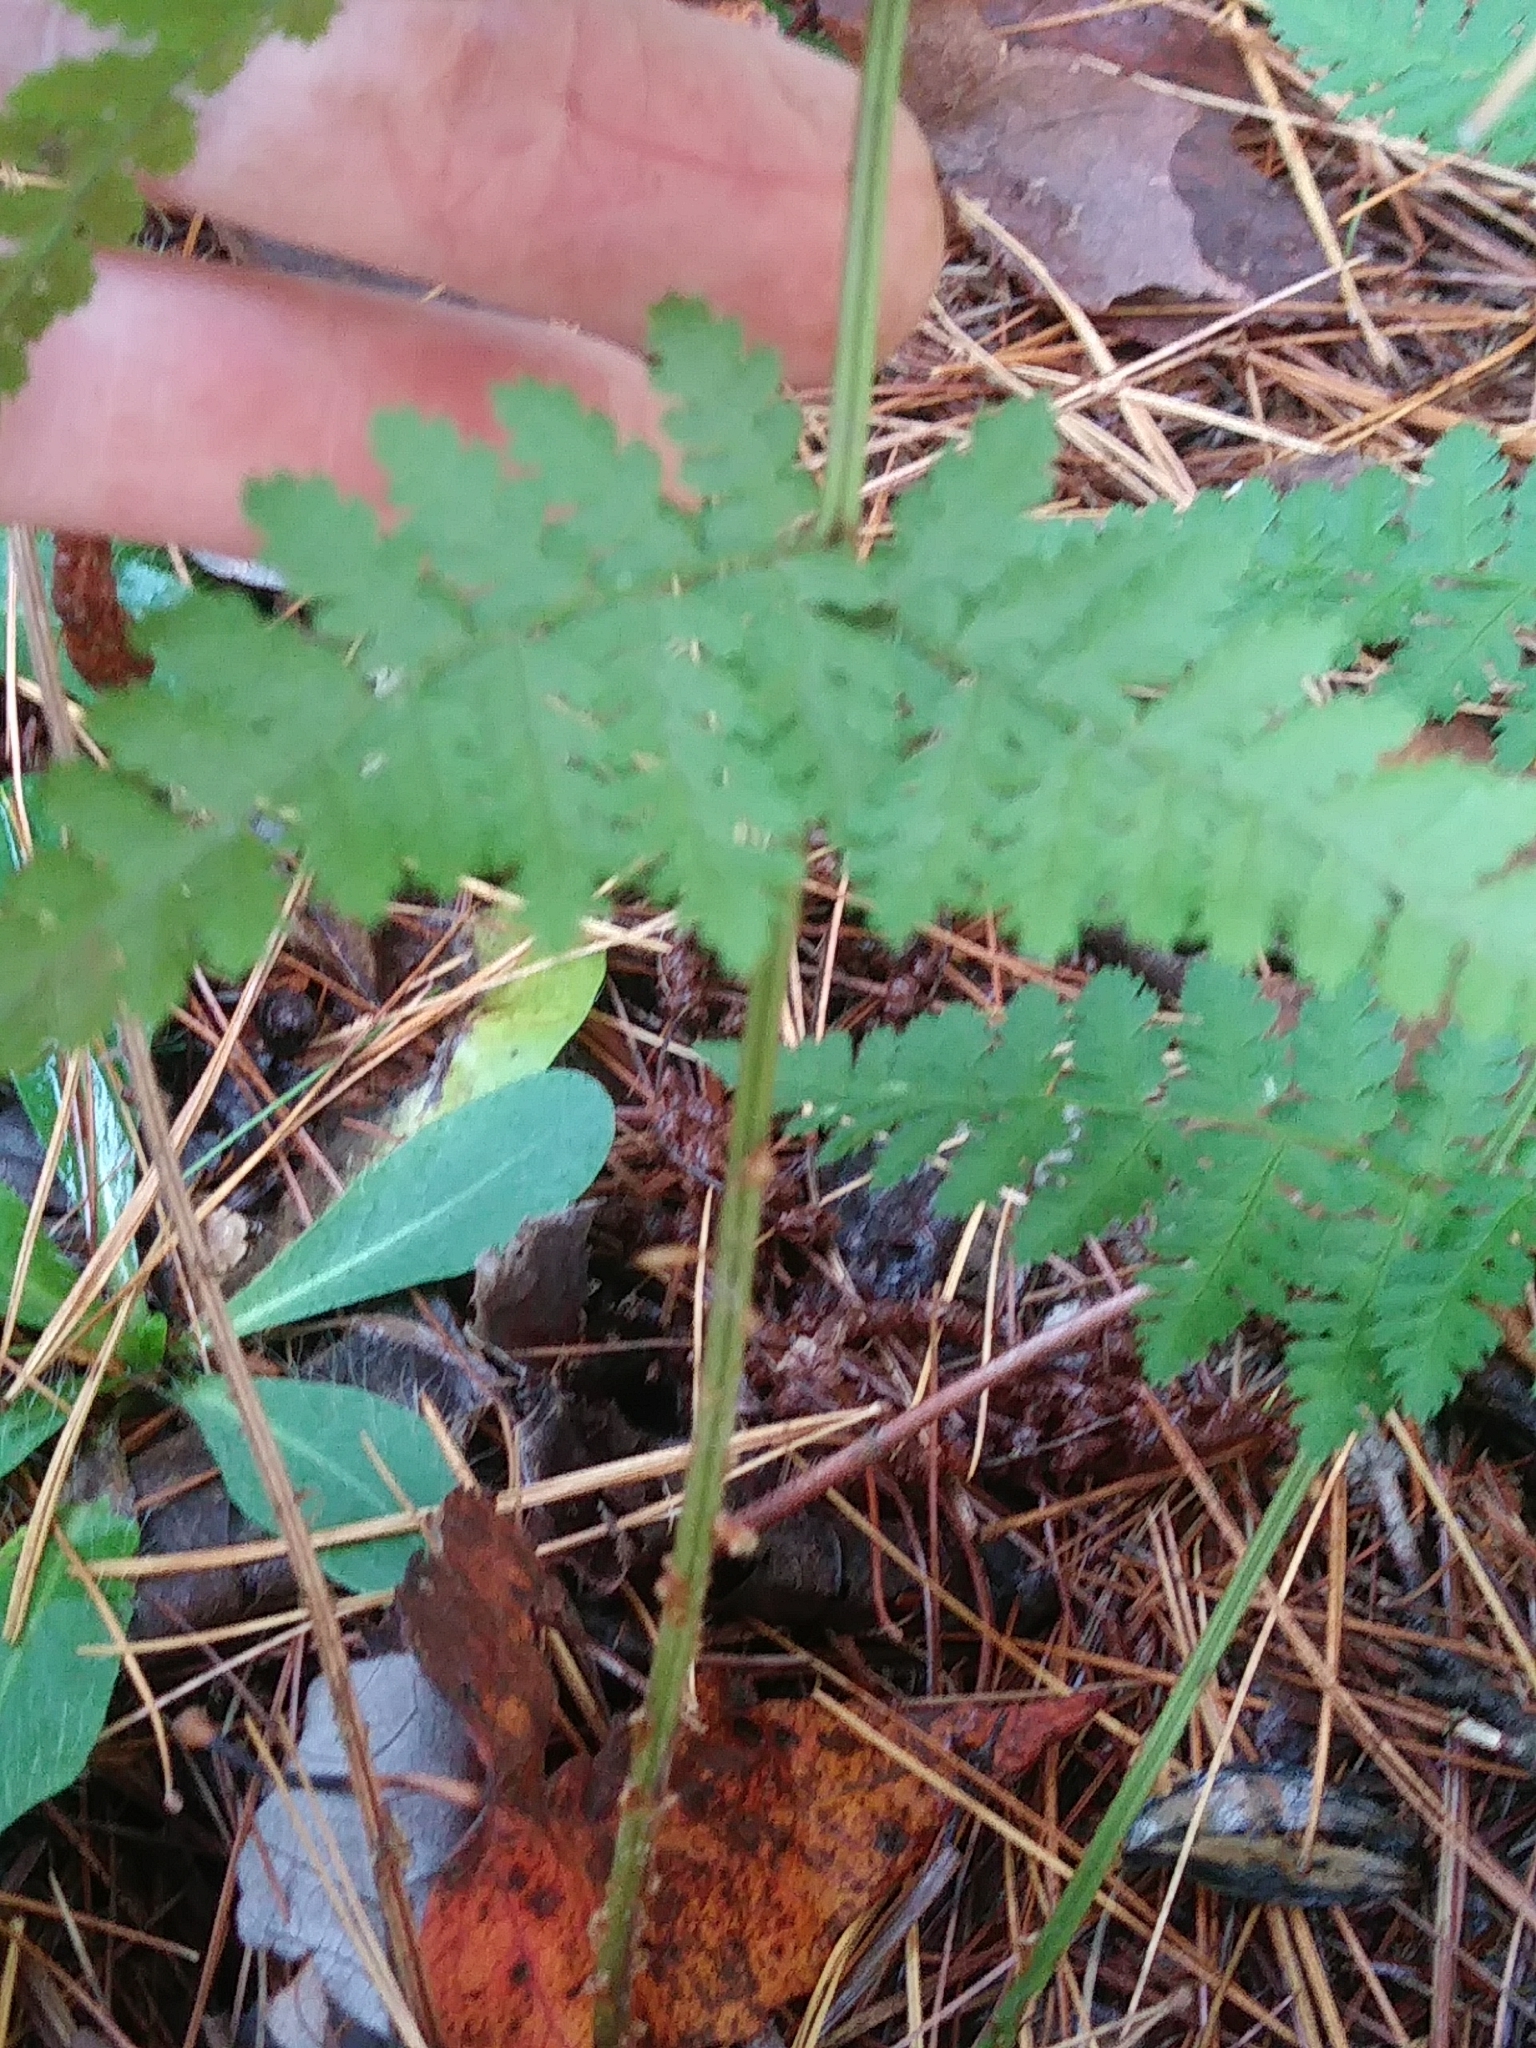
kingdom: Plantae
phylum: Tracheophyta
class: Polypodiopsida
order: Polypodiales
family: Dryopteridaceae
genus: Dryopteris
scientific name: Dryopteris intermedia
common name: Evergreen wood fern
